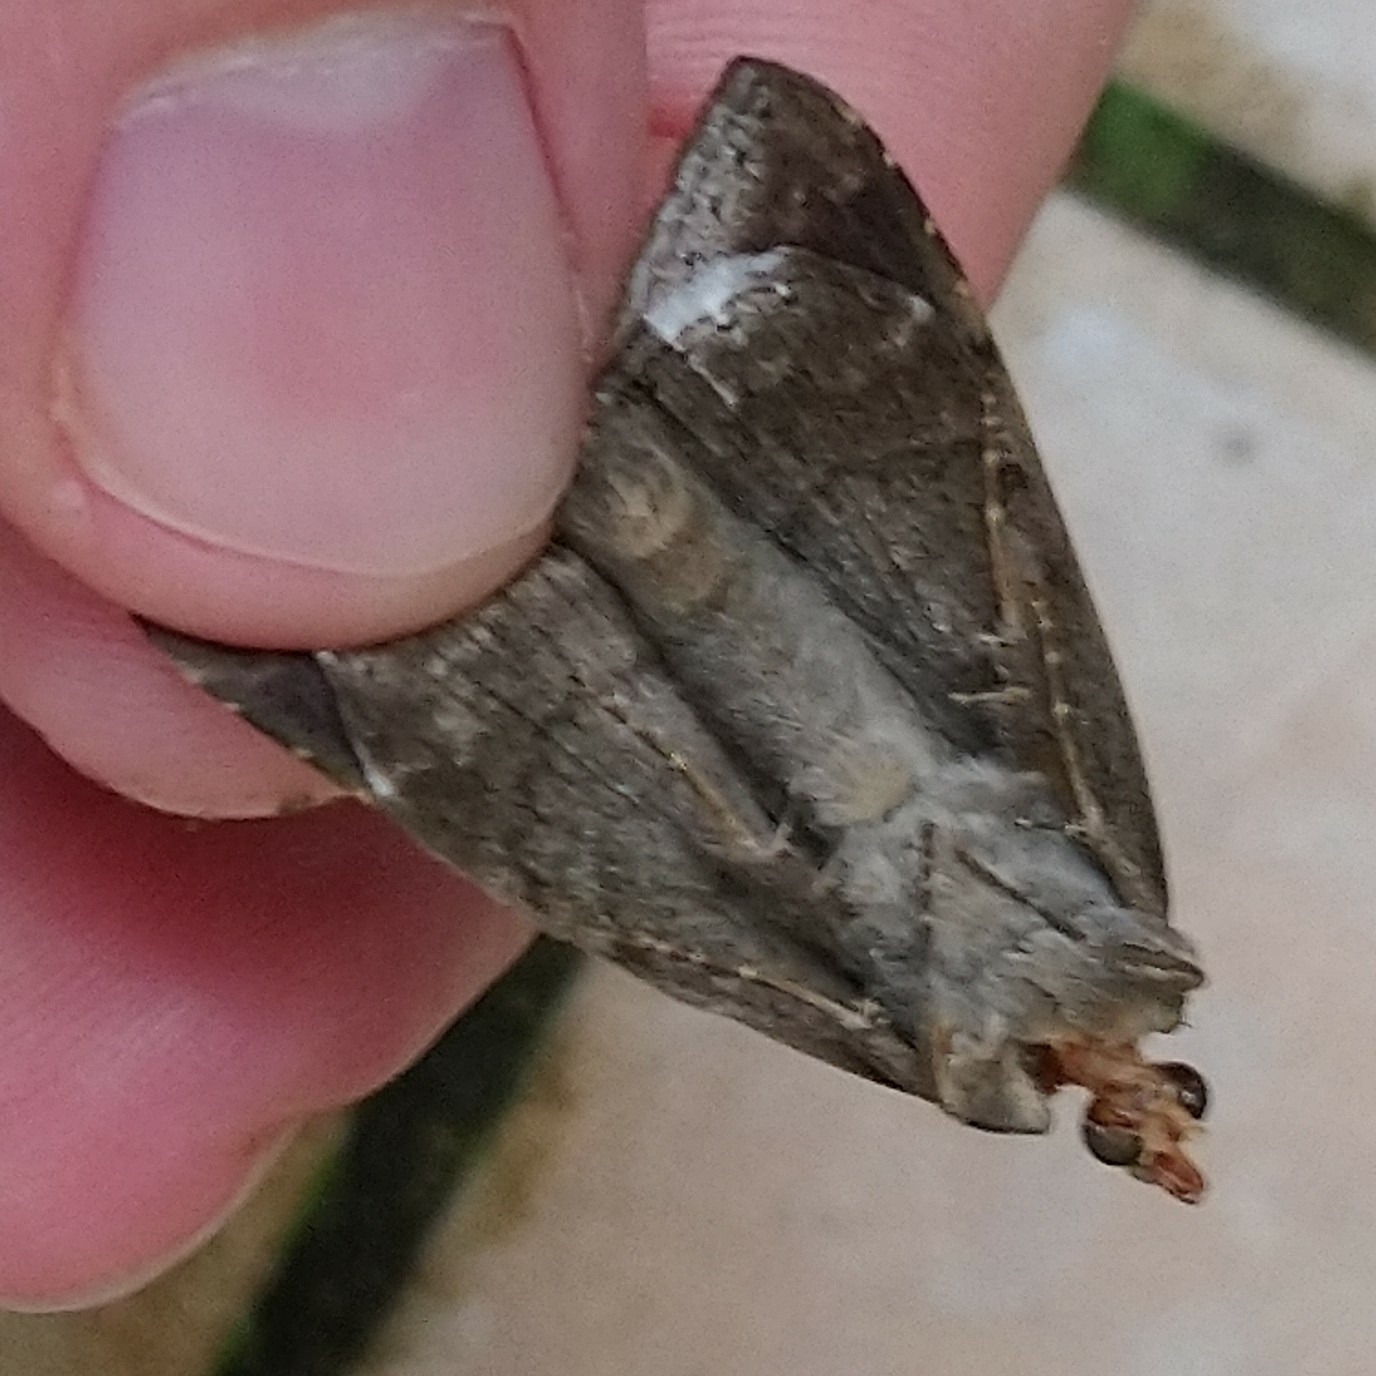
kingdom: Animalia
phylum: Arthropoda
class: Insecta
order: Lepidoptera
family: Erebidae
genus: Achaea
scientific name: Achaea lienardi
